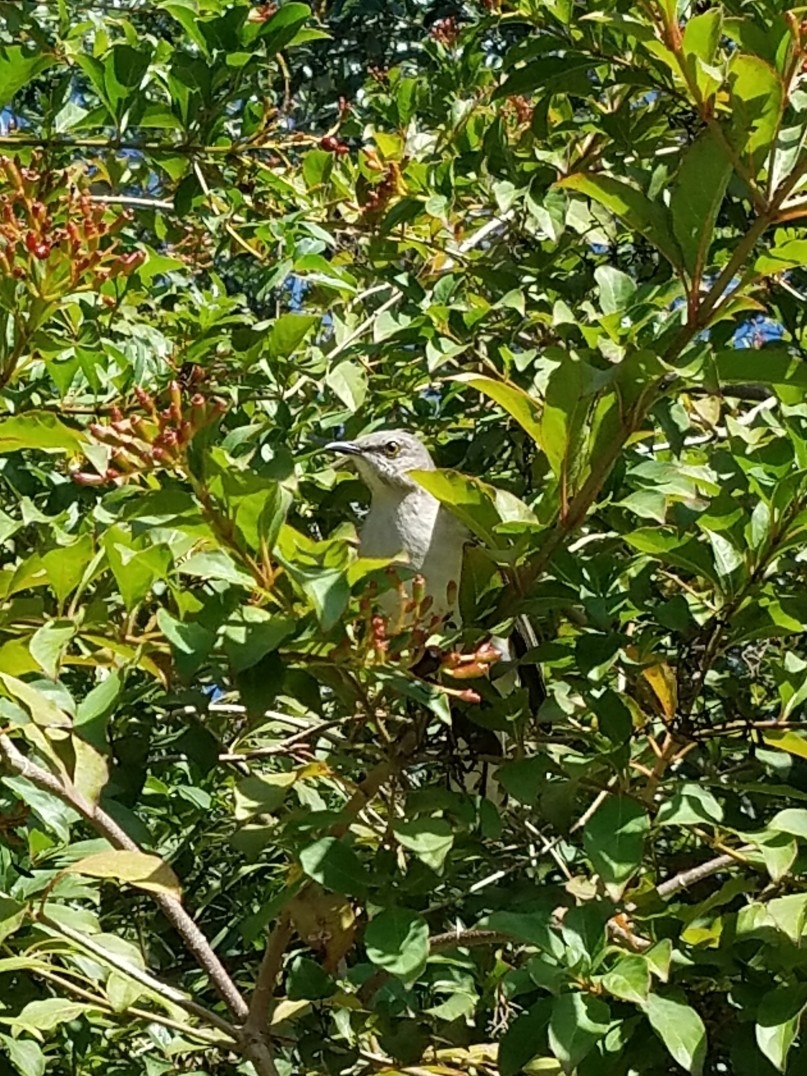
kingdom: Animalia
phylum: Chordata
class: Aves
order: Passeriformes
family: Mimidae
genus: Mimus
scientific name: Mimus polyglottos
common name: Northern mockingbird
